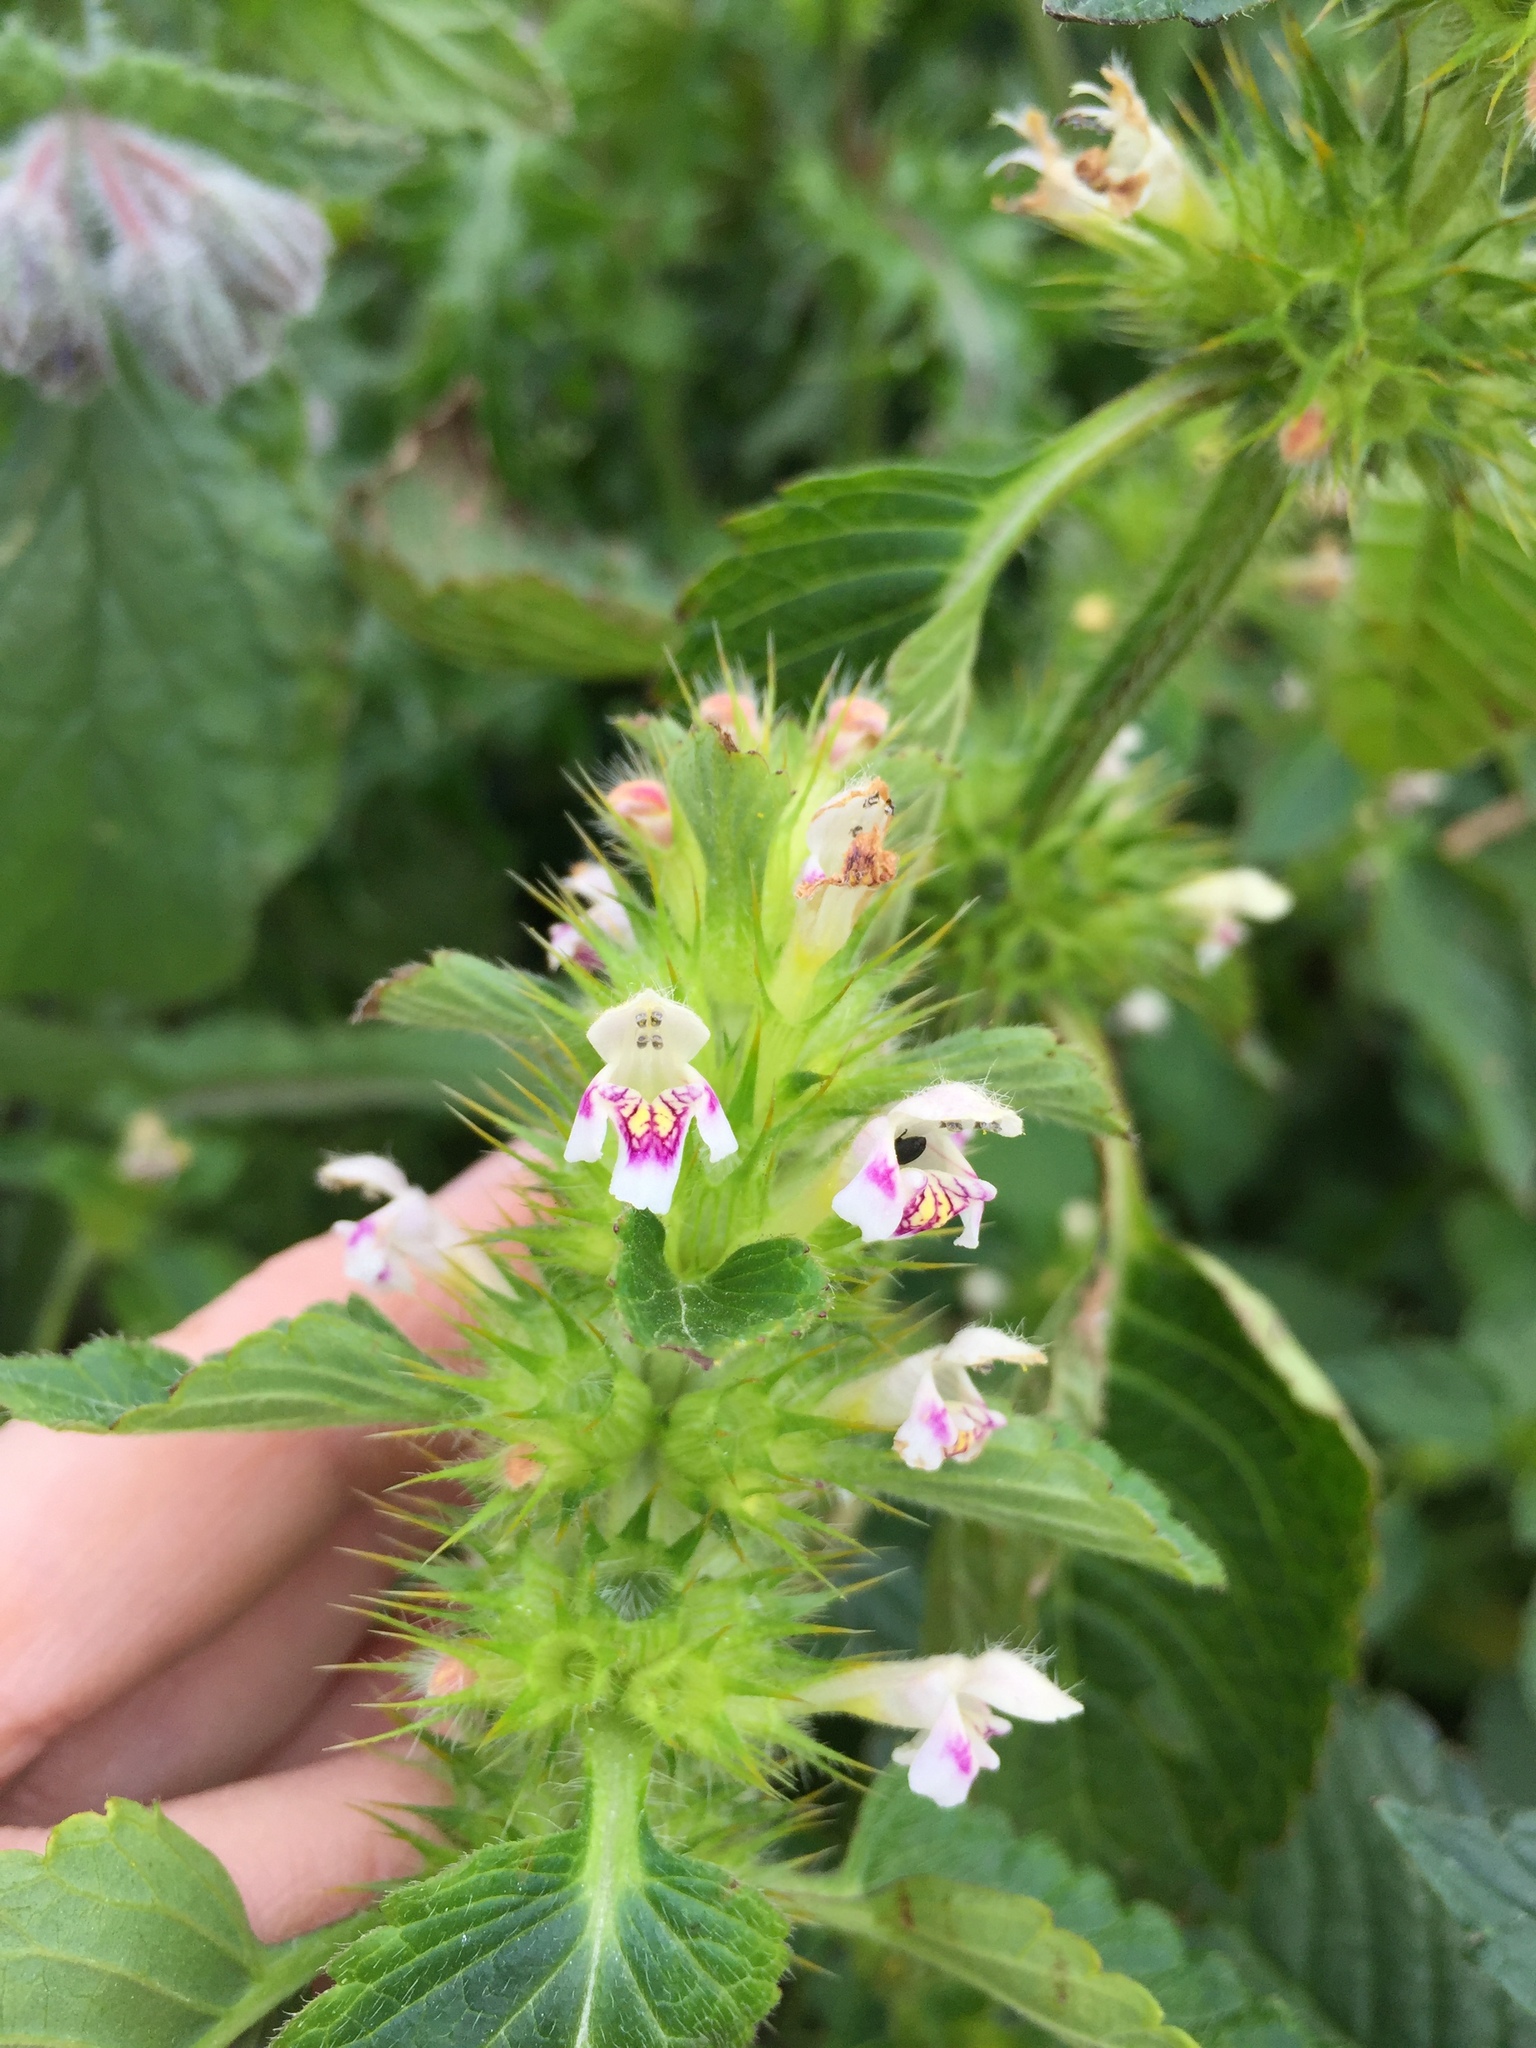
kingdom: Plantae
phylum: Tracheophyta
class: Magnoliopsida
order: Lamiales
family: Lamiaceae
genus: Galeopsis
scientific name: Galeopsis speciosa
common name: Large-flowered hemp-nettle
